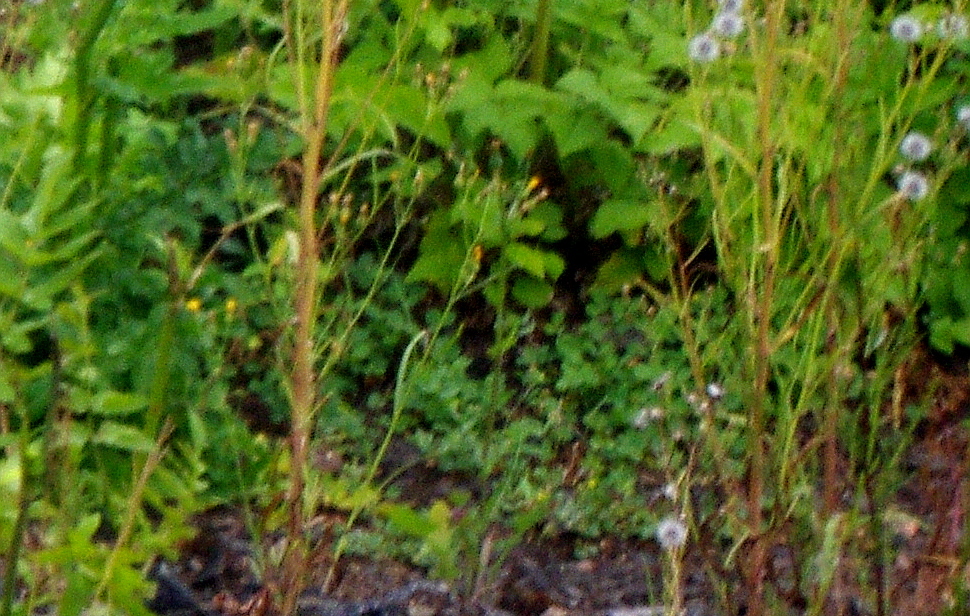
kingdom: Plantae
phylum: Tracheophyta
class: Magnoliopsida
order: Asterales
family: Asteraceae
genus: Crepis
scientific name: Crepis tectorum
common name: Narrow-leaved hawk's-beard
